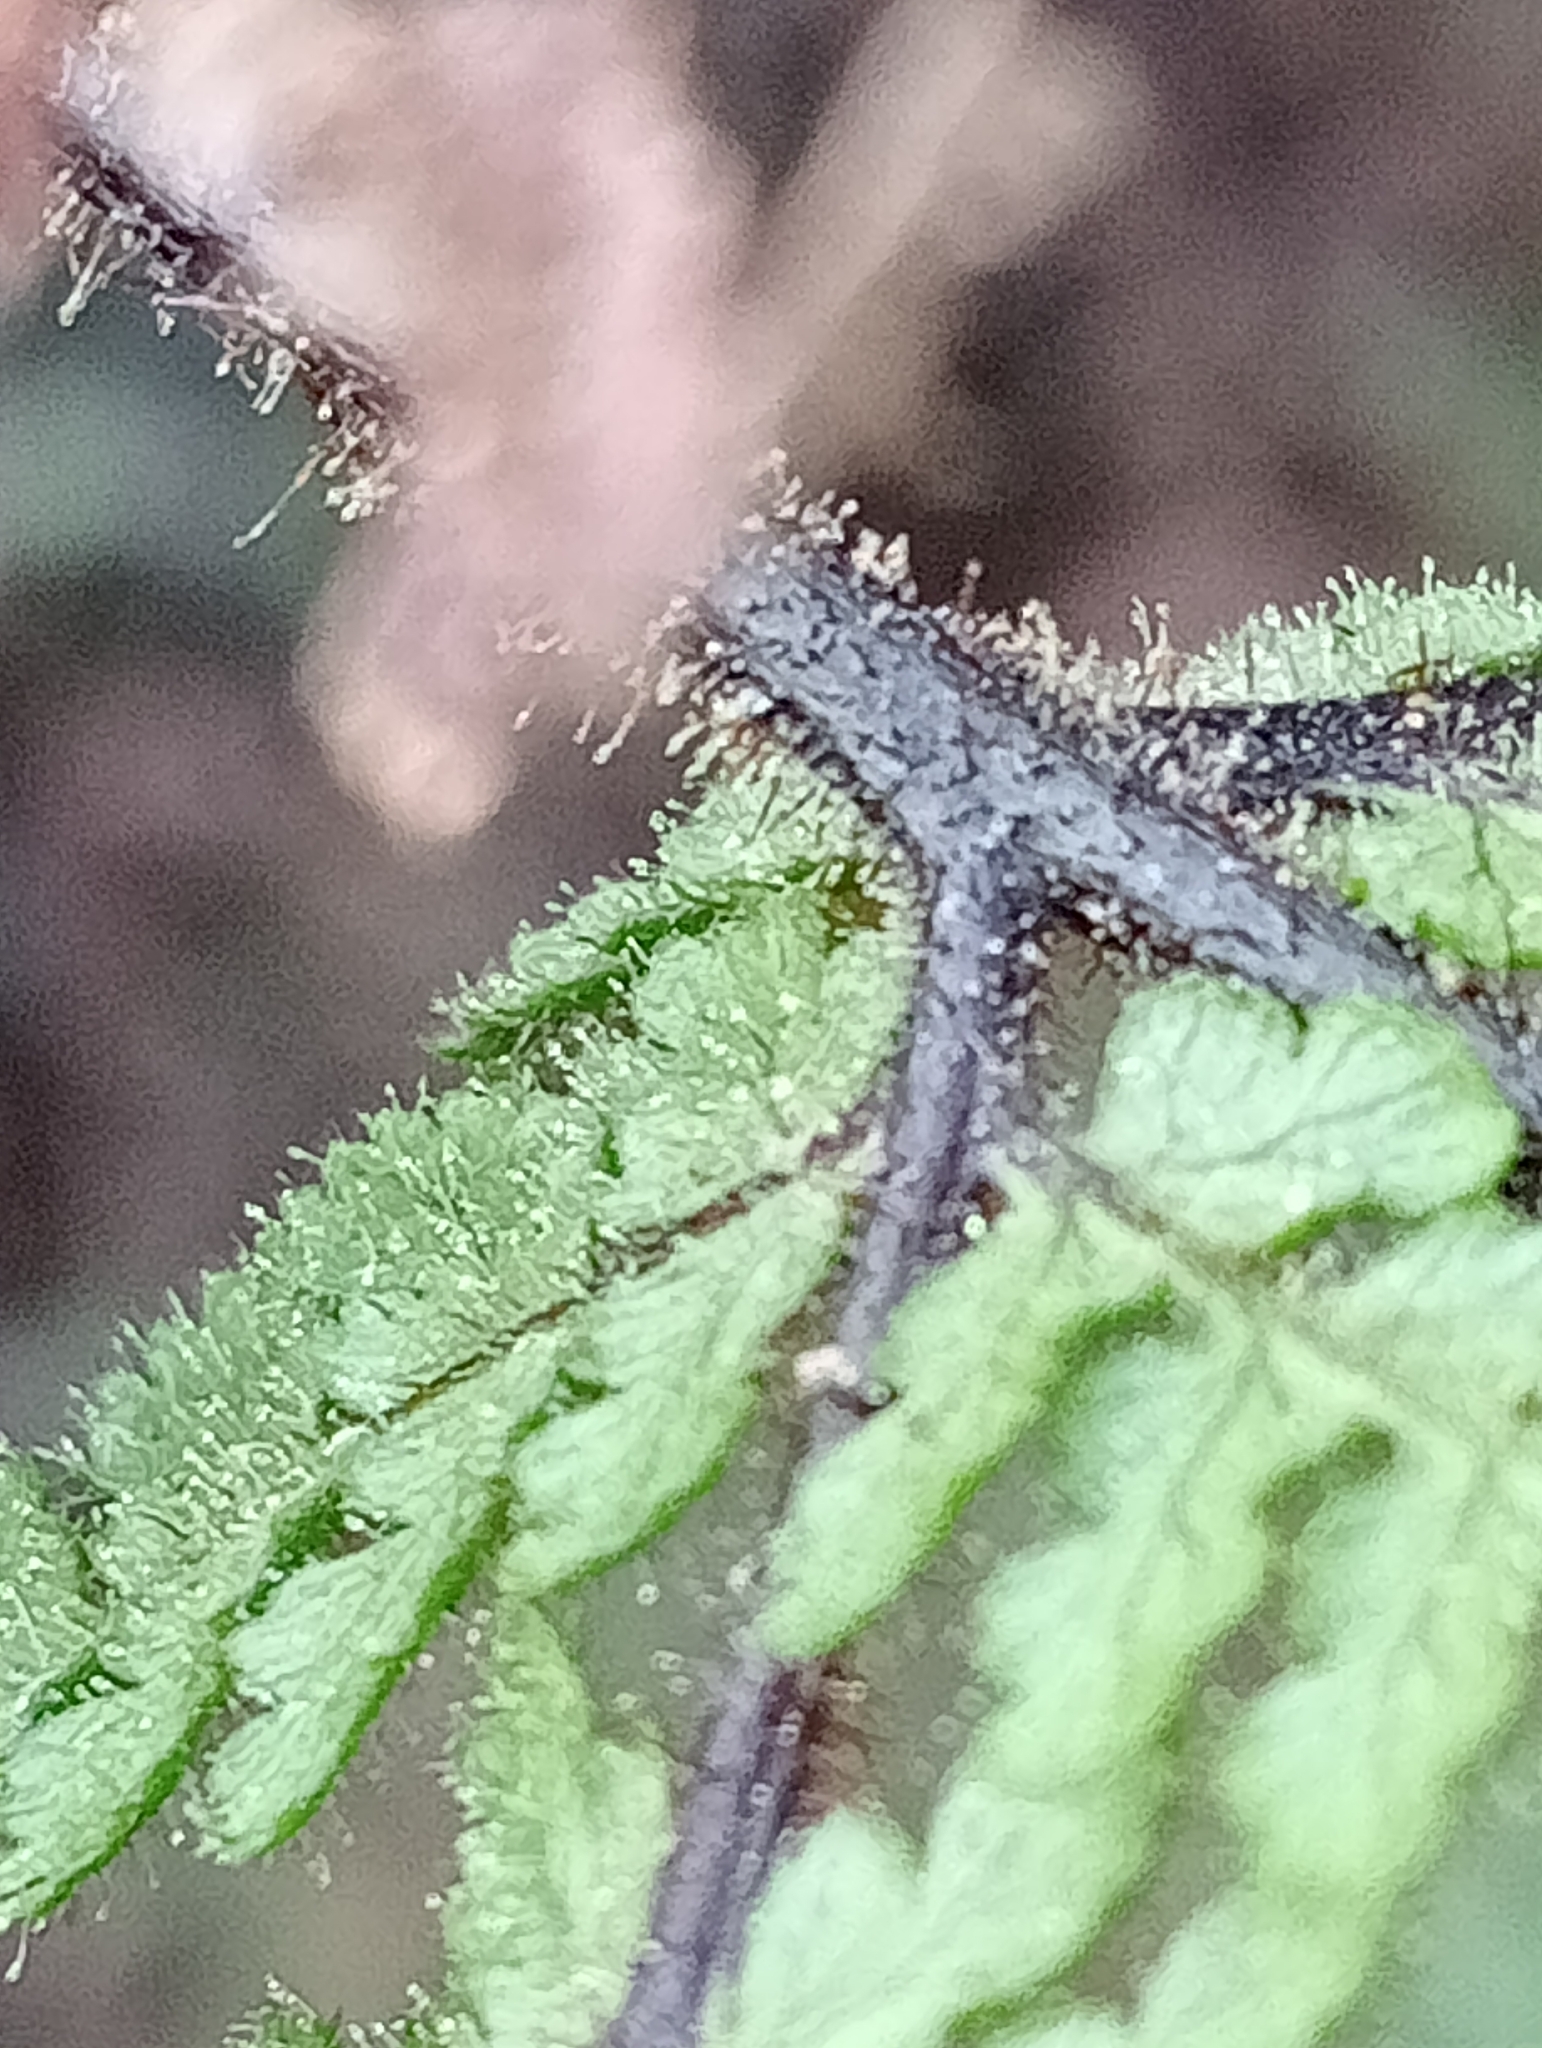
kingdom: Plantae
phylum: Tracheophyta
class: Polypodiopsida
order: Polypodiales
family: Dennstaedtiaceae
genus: Hypolepis
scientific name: Hypolepis rugosula
